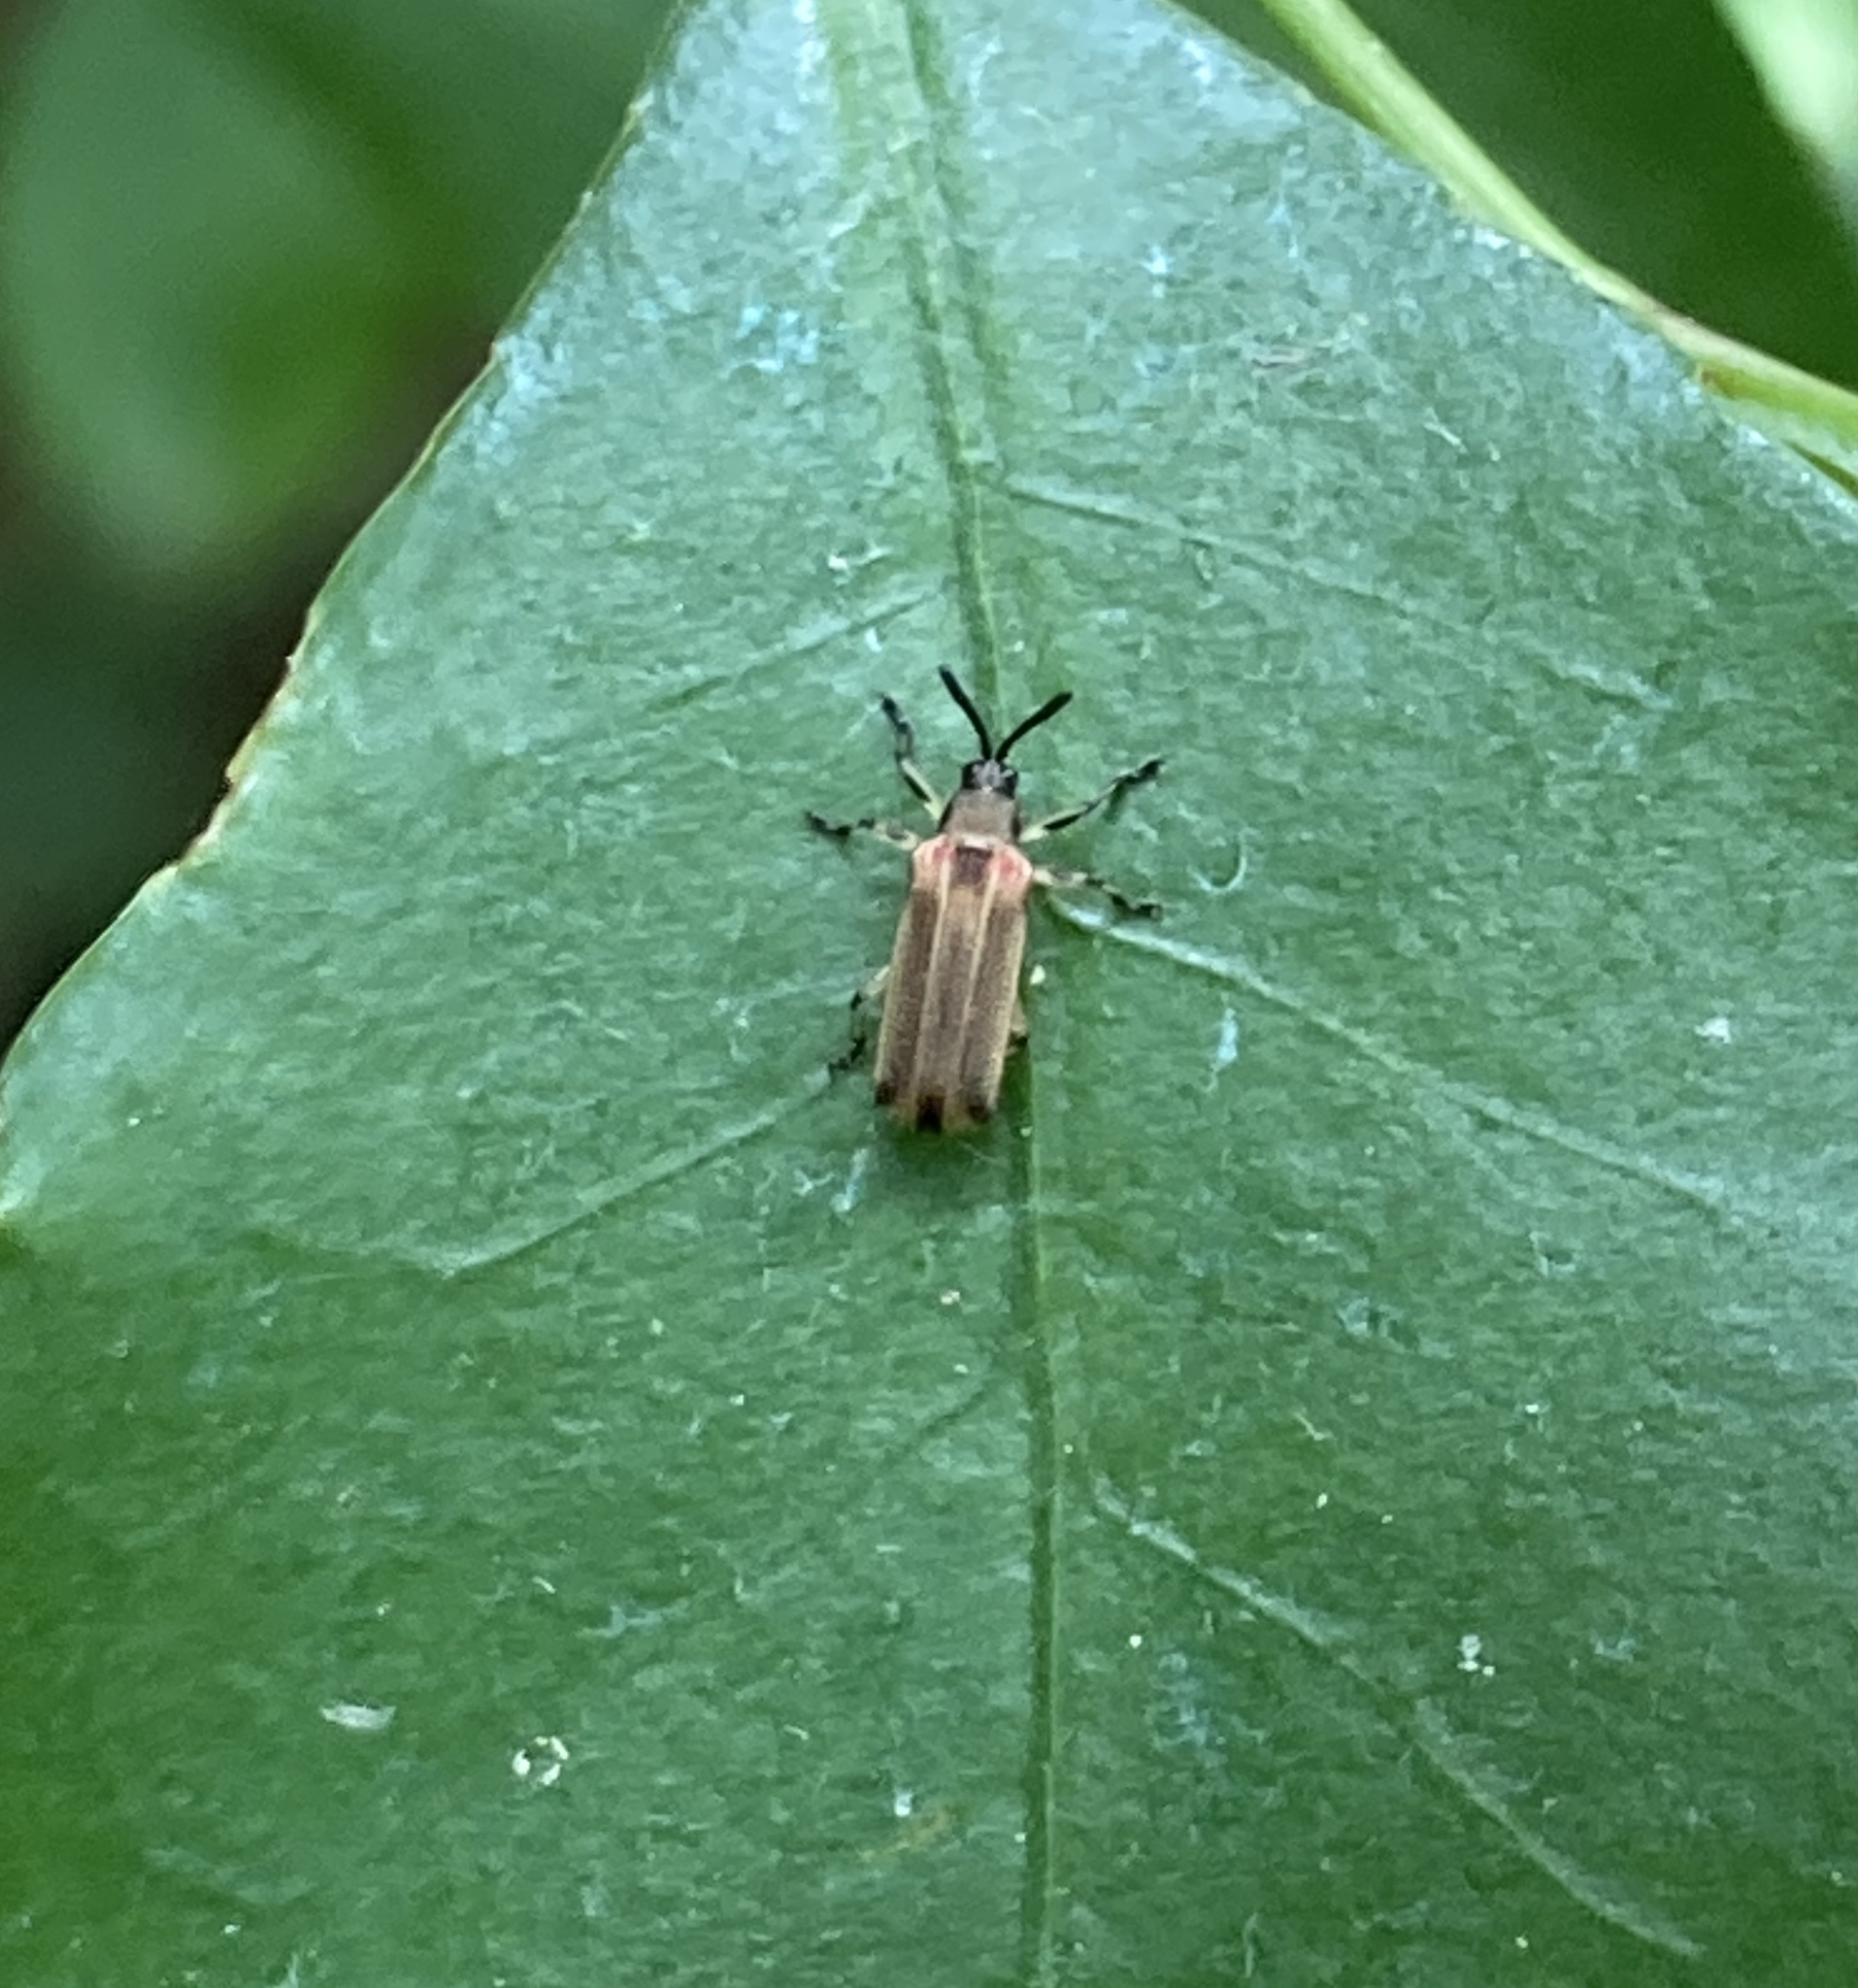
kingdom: Animalia
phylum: Arthropoda
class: Insecta
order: Coleoptera
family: Chrysomelidae
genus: Heterispa
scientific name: Heterispa costipennis
